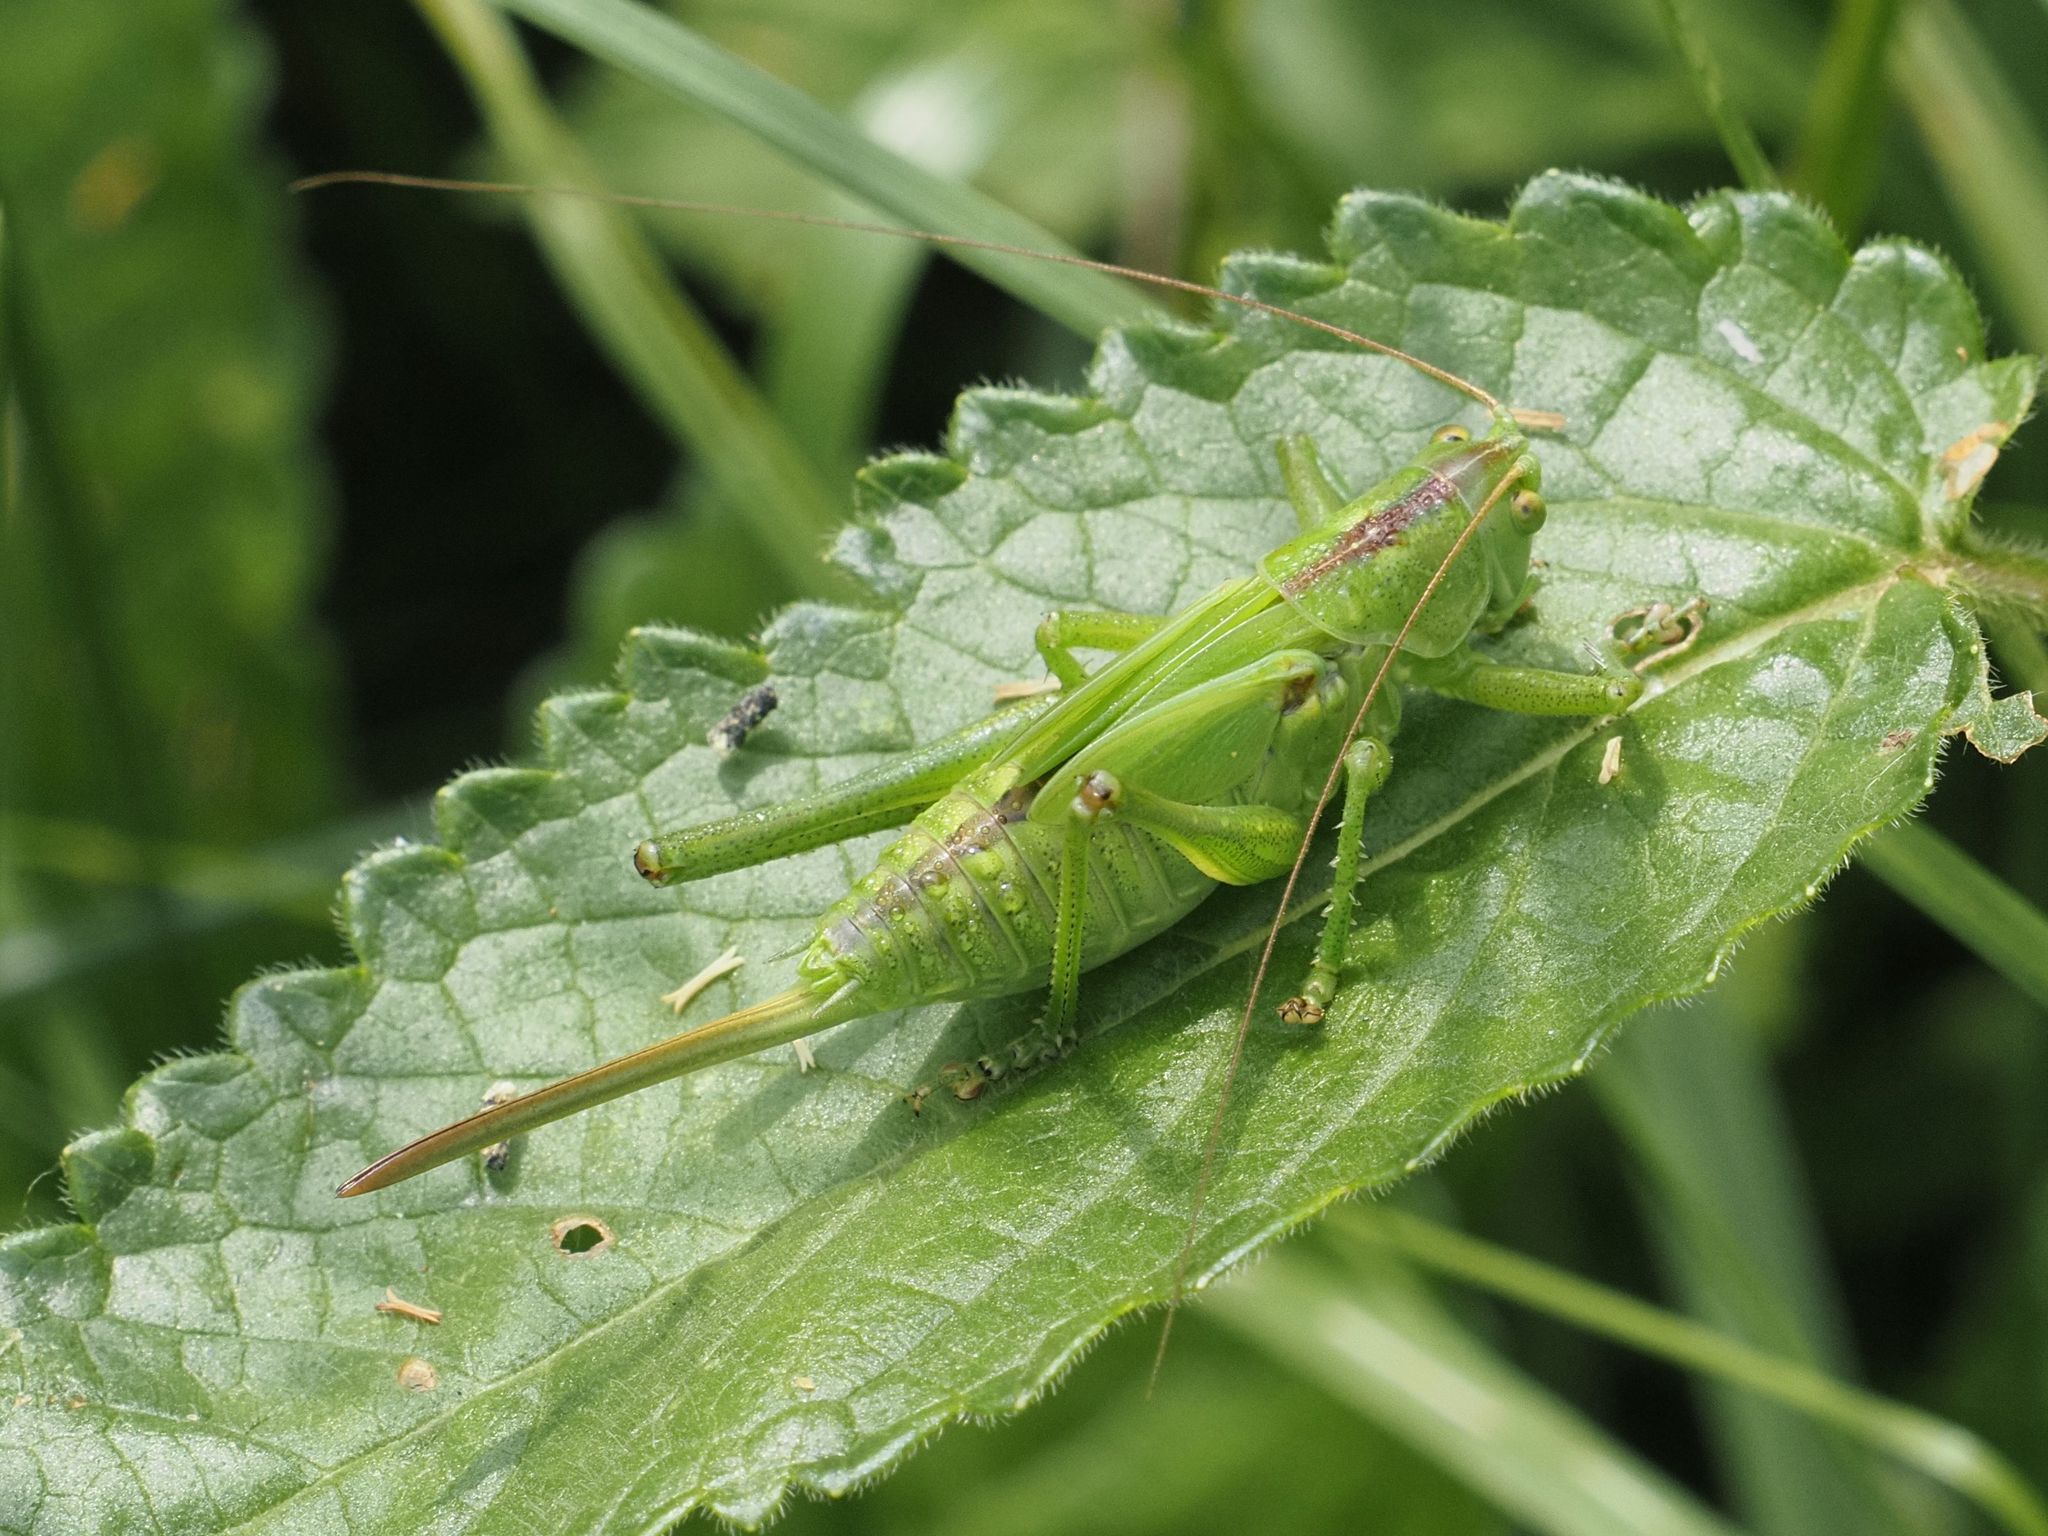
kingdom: Animalia
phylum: Arthropoda
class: Insecta
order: Orthoptera
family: Tettigoniidae
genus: Tettigonia
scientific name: Tettigonia viridissima
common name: Great green bush-cricket
